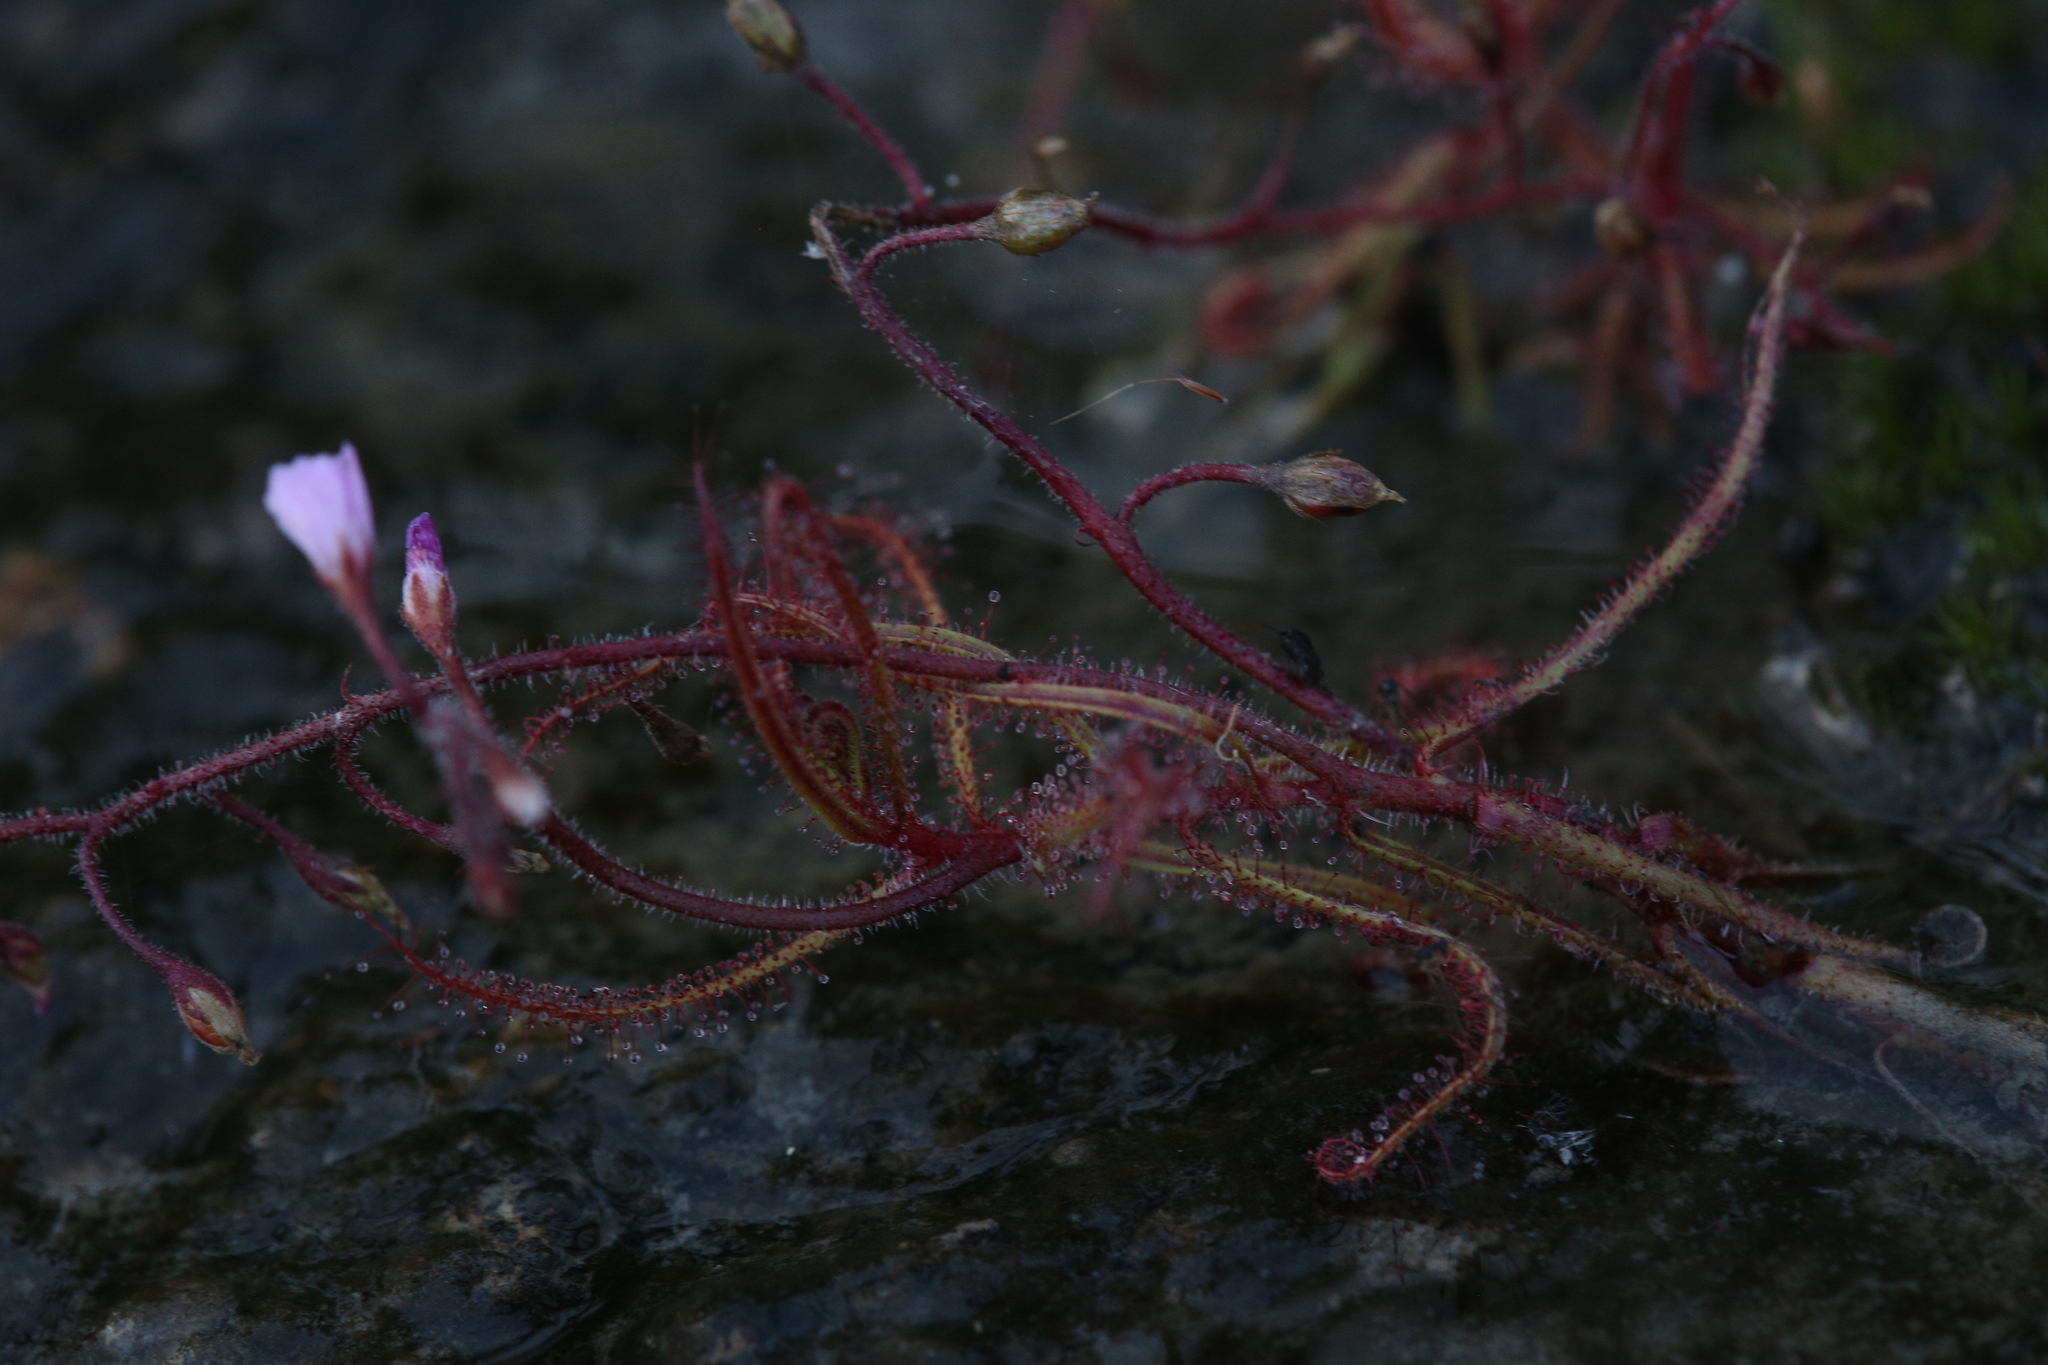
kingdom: Plantae
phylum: Tracheophyta
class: Magnoliopsida
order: Caryophyllales
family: Droseraceae
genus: Drosera
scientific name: Drosera aquatica
